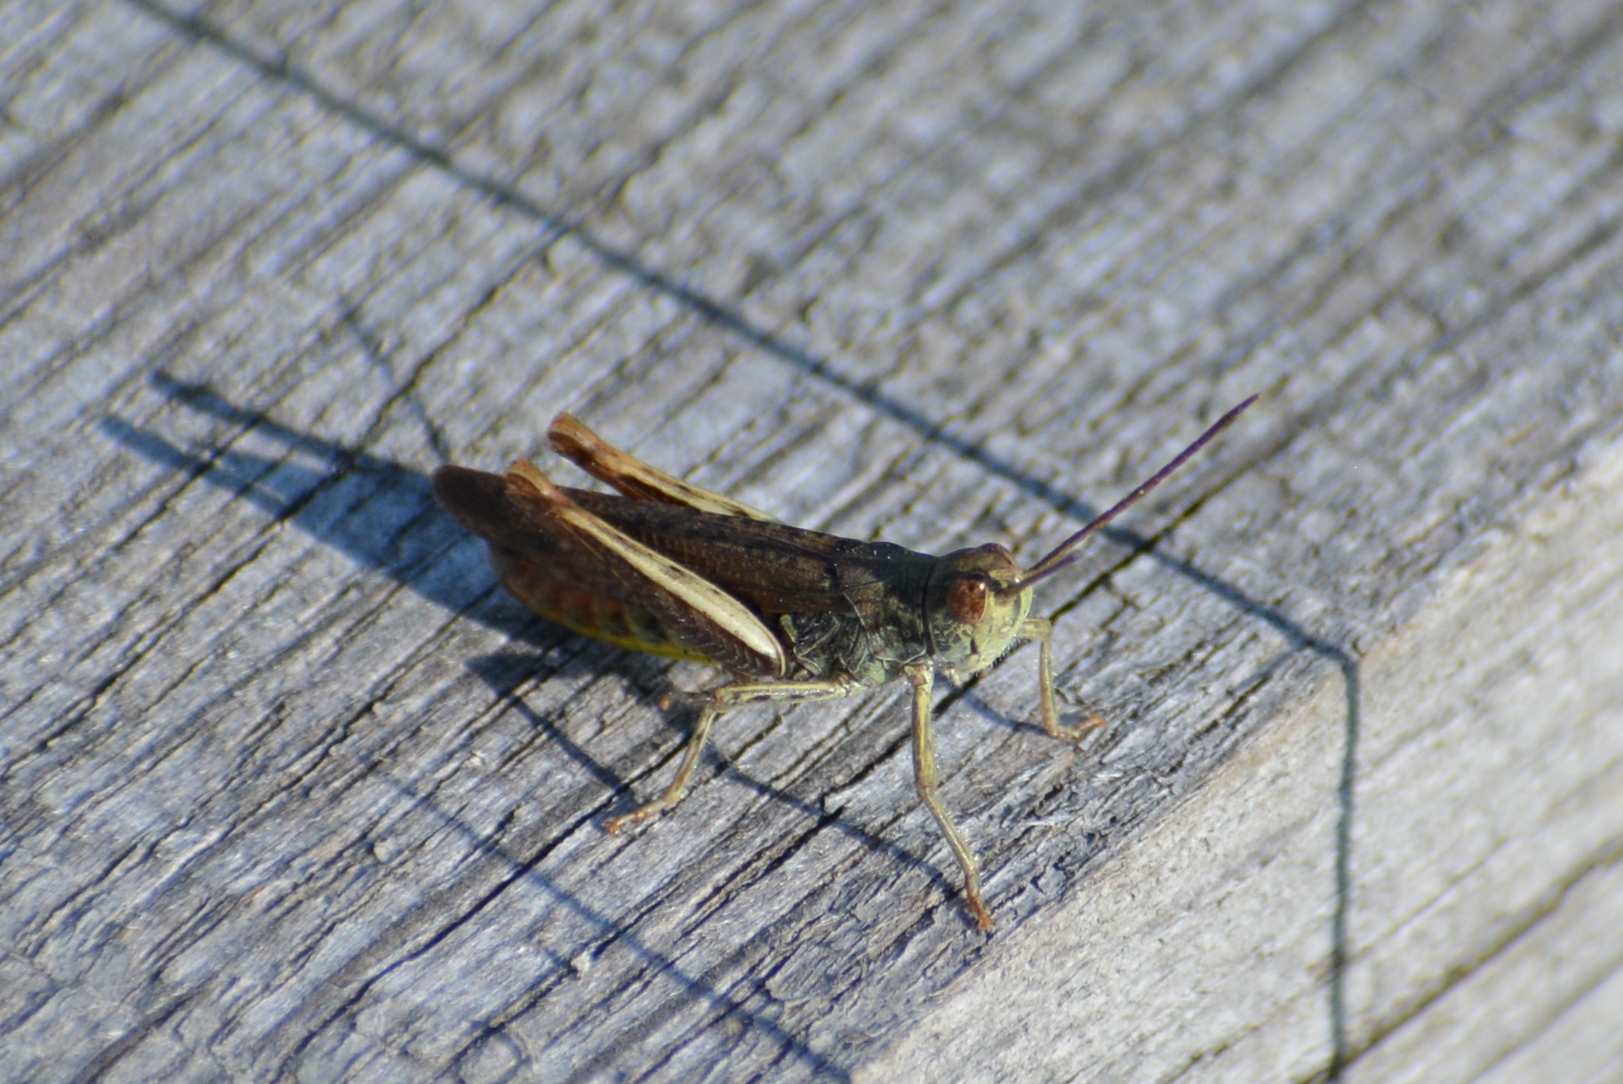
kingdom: Animalia
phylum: Arthropoda
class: Insecta
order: Orthoptera
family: Acrididae
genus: Chorthippus
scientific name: Chorthippus biguttulus
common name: Bow-winged grasshopper
